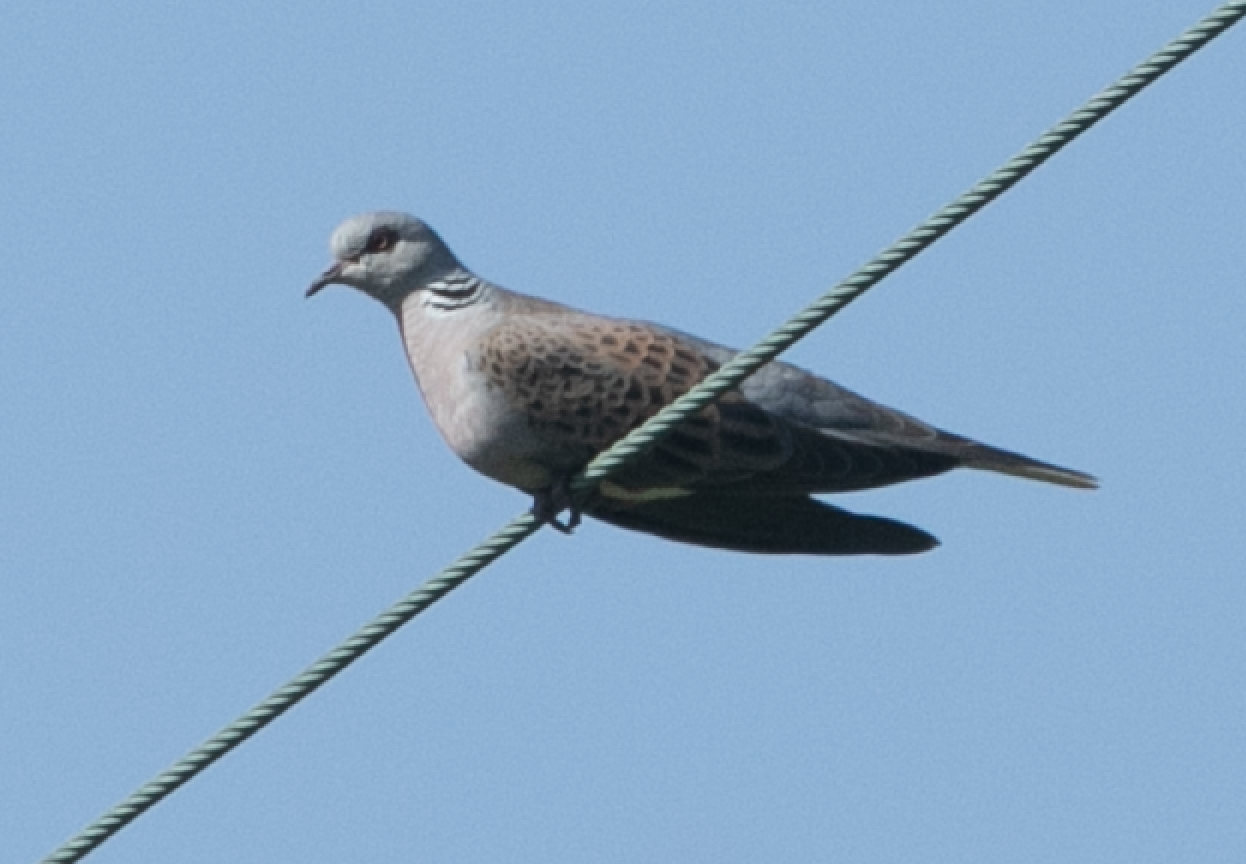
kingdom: Animalia
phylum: Chordata
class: Aves
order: Columbiformes
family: Columbidae
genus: Streptopelia
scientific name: Streptopelia turtur
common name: European turtle dove
